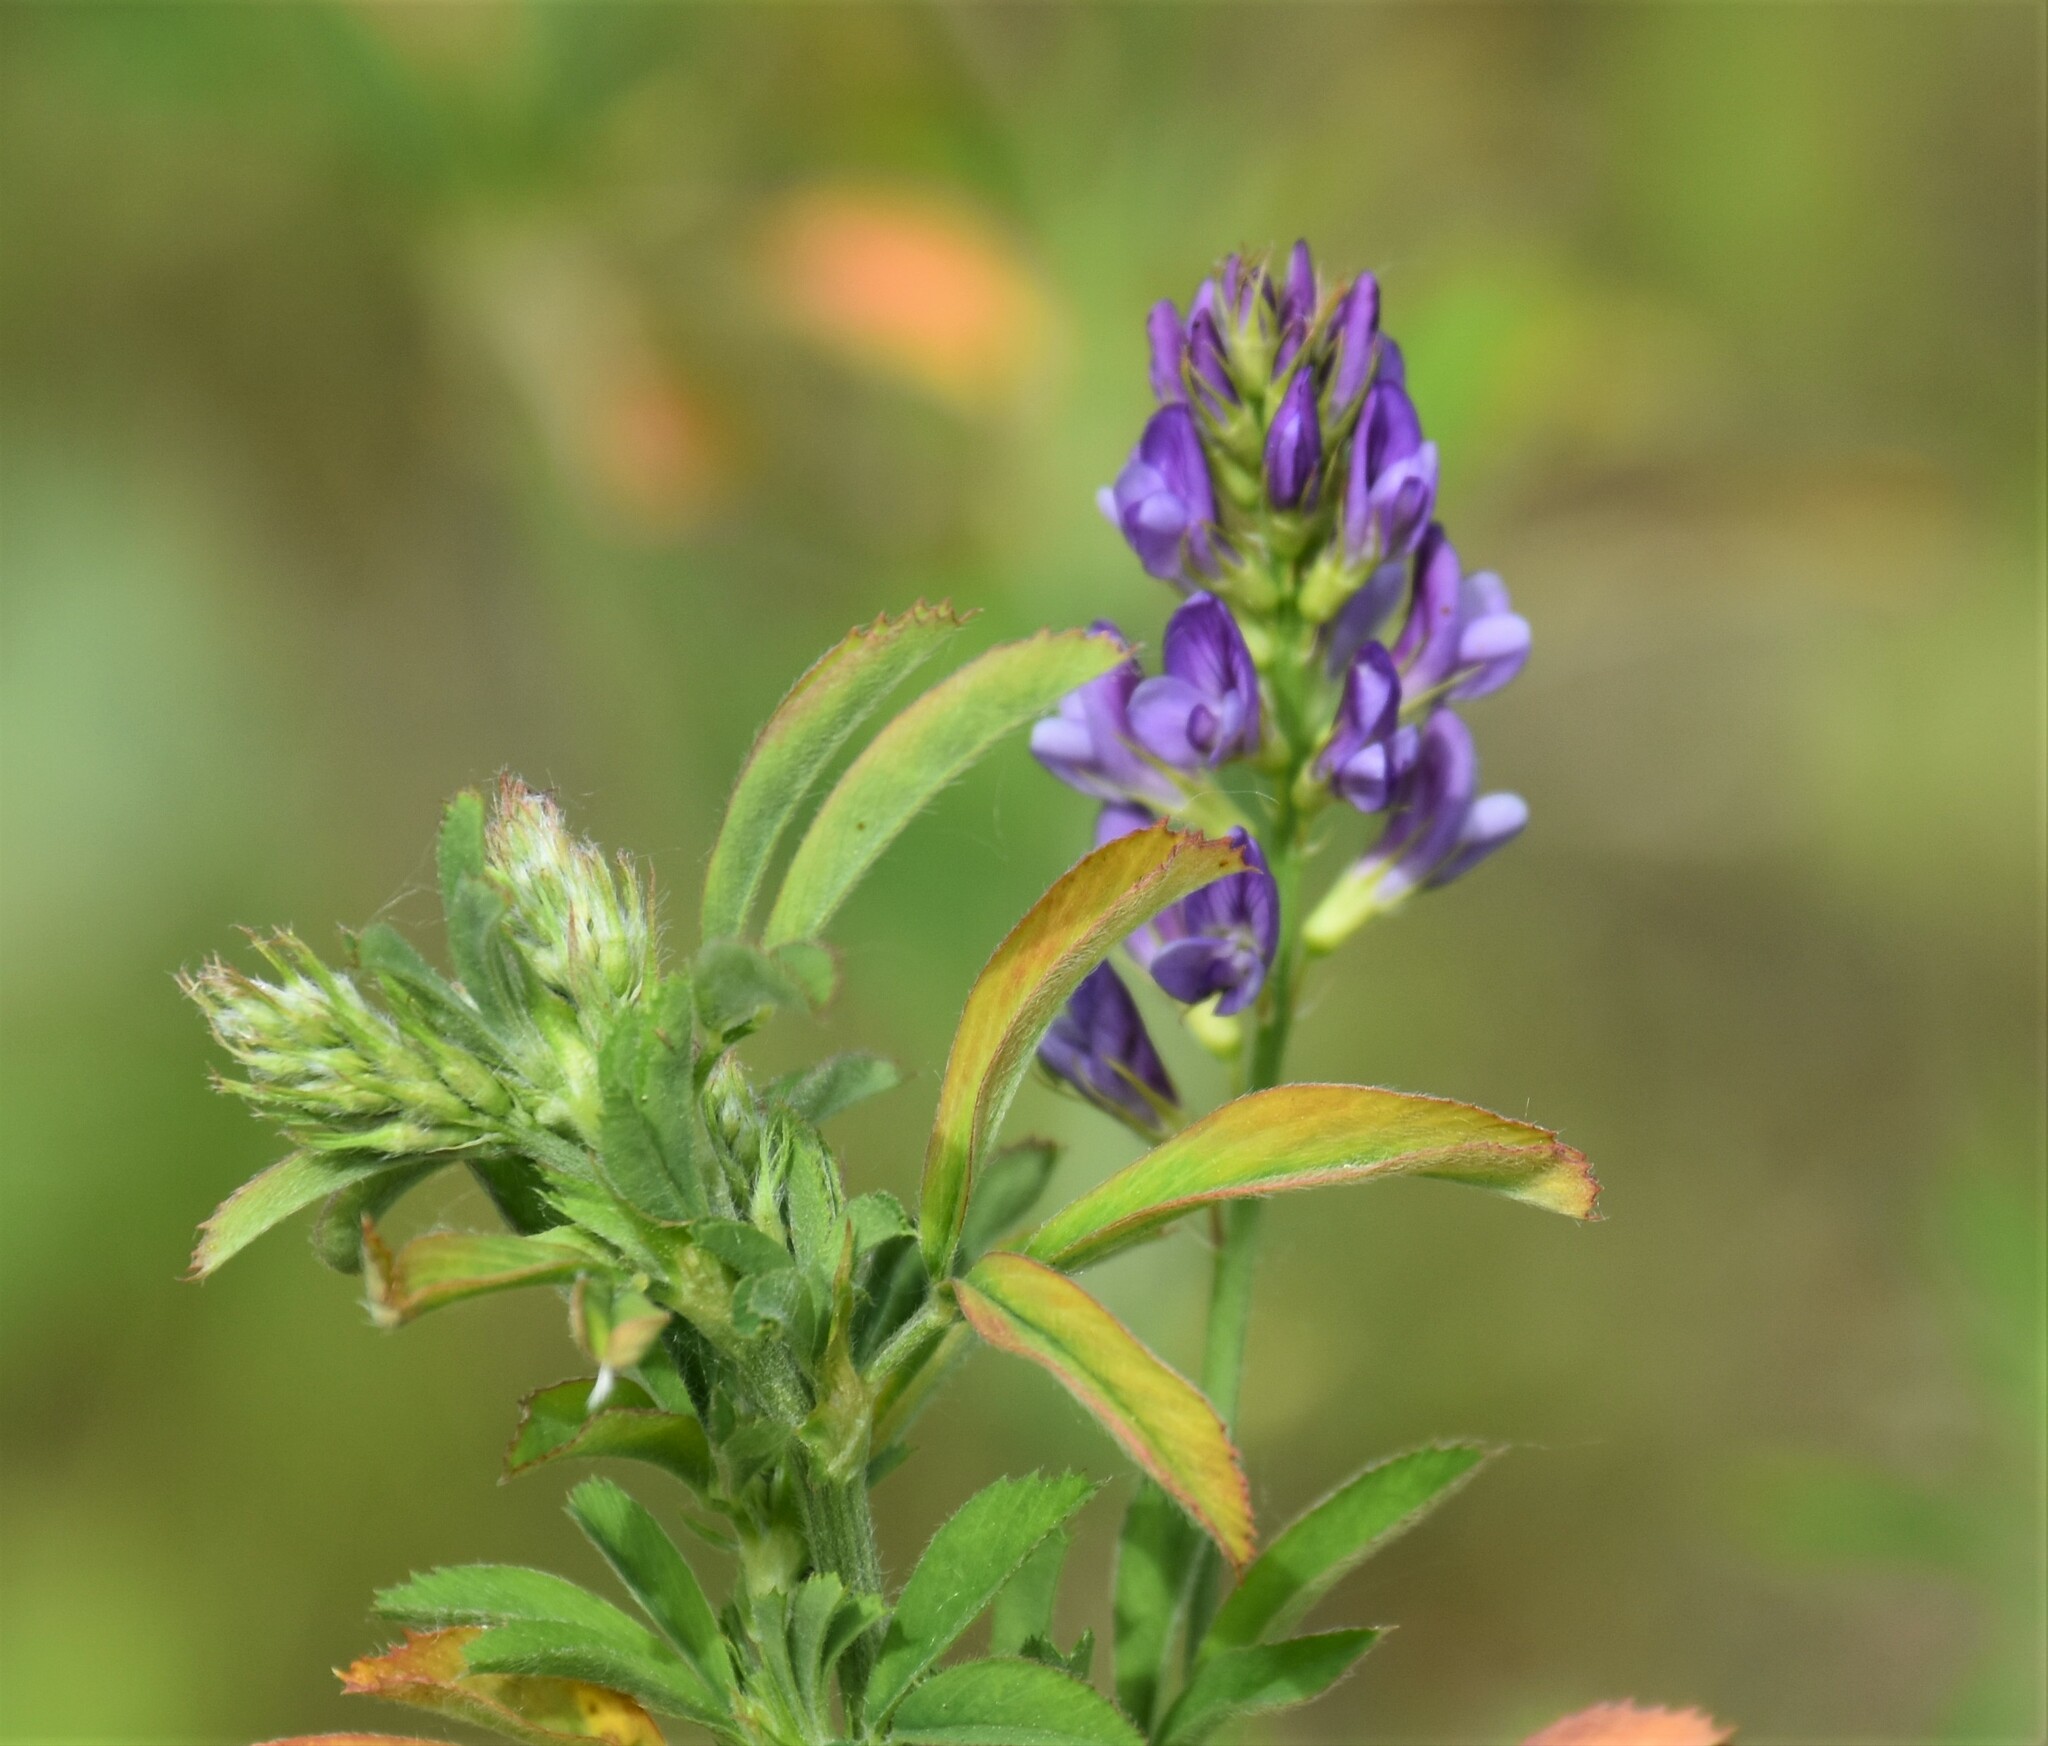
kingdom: Plantae
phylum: Tracheophyta
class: Magnoliopsida
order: Fabales
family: Fabaceae
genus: Medicago
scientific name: Medicago sativa
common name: Alfalfa
